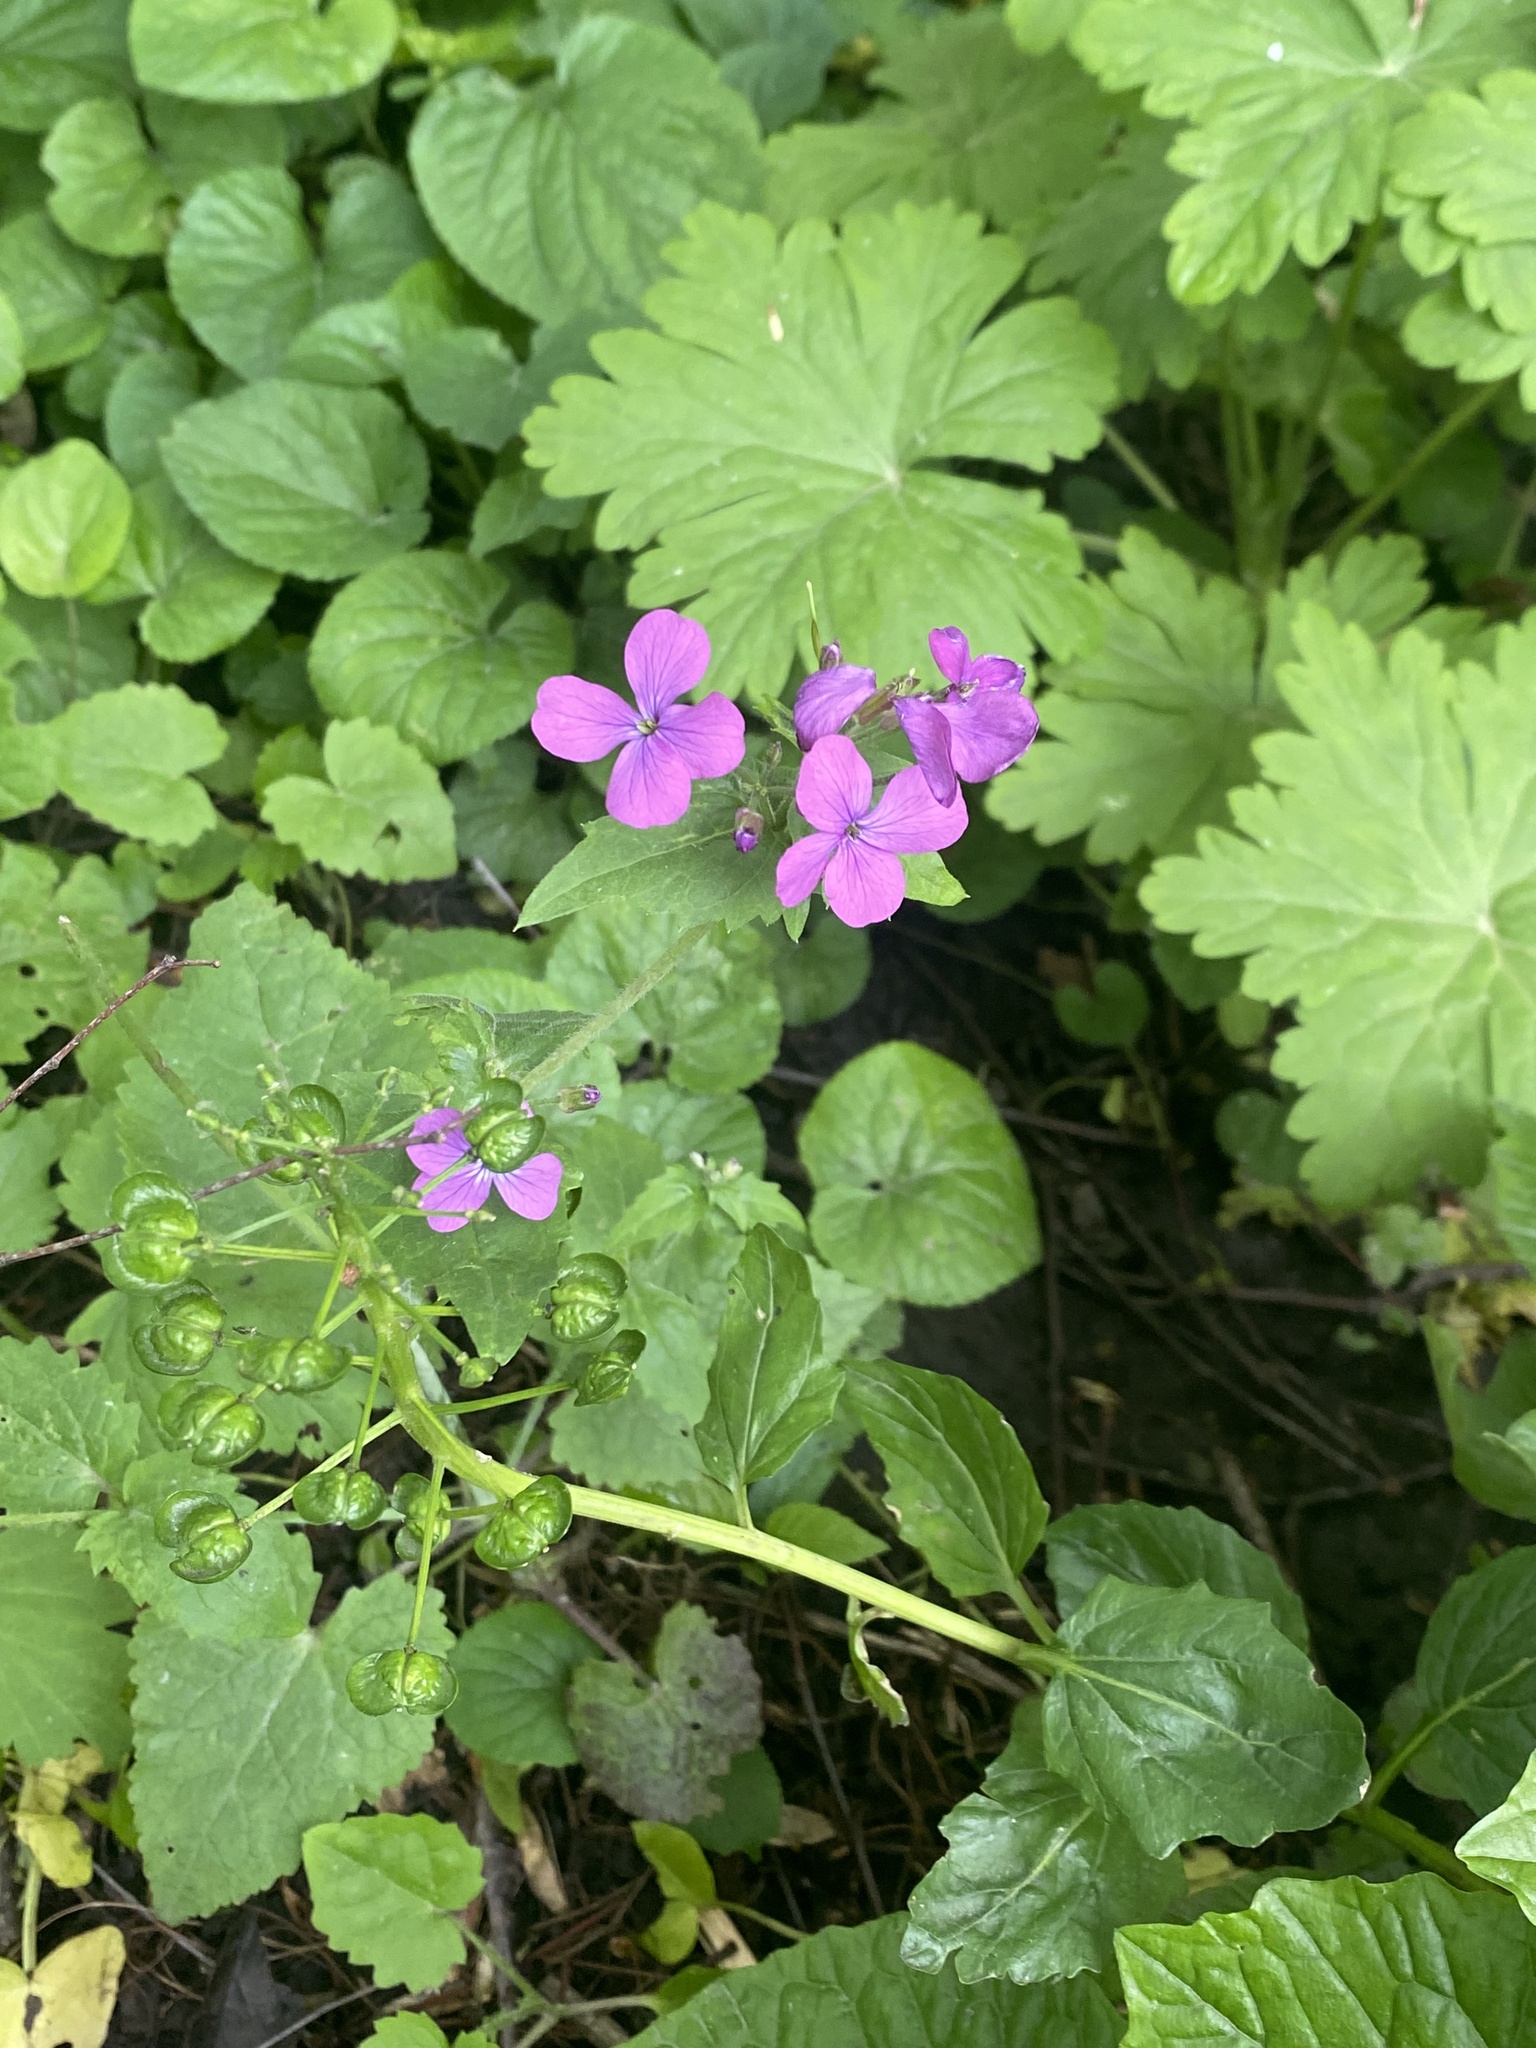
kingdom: Plantae
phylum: Tracheophyta
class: Magnoliopsida
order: Brassicales
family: Brassicaceae
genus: Lunaria
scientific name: Lunaria annua
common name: Honesty
